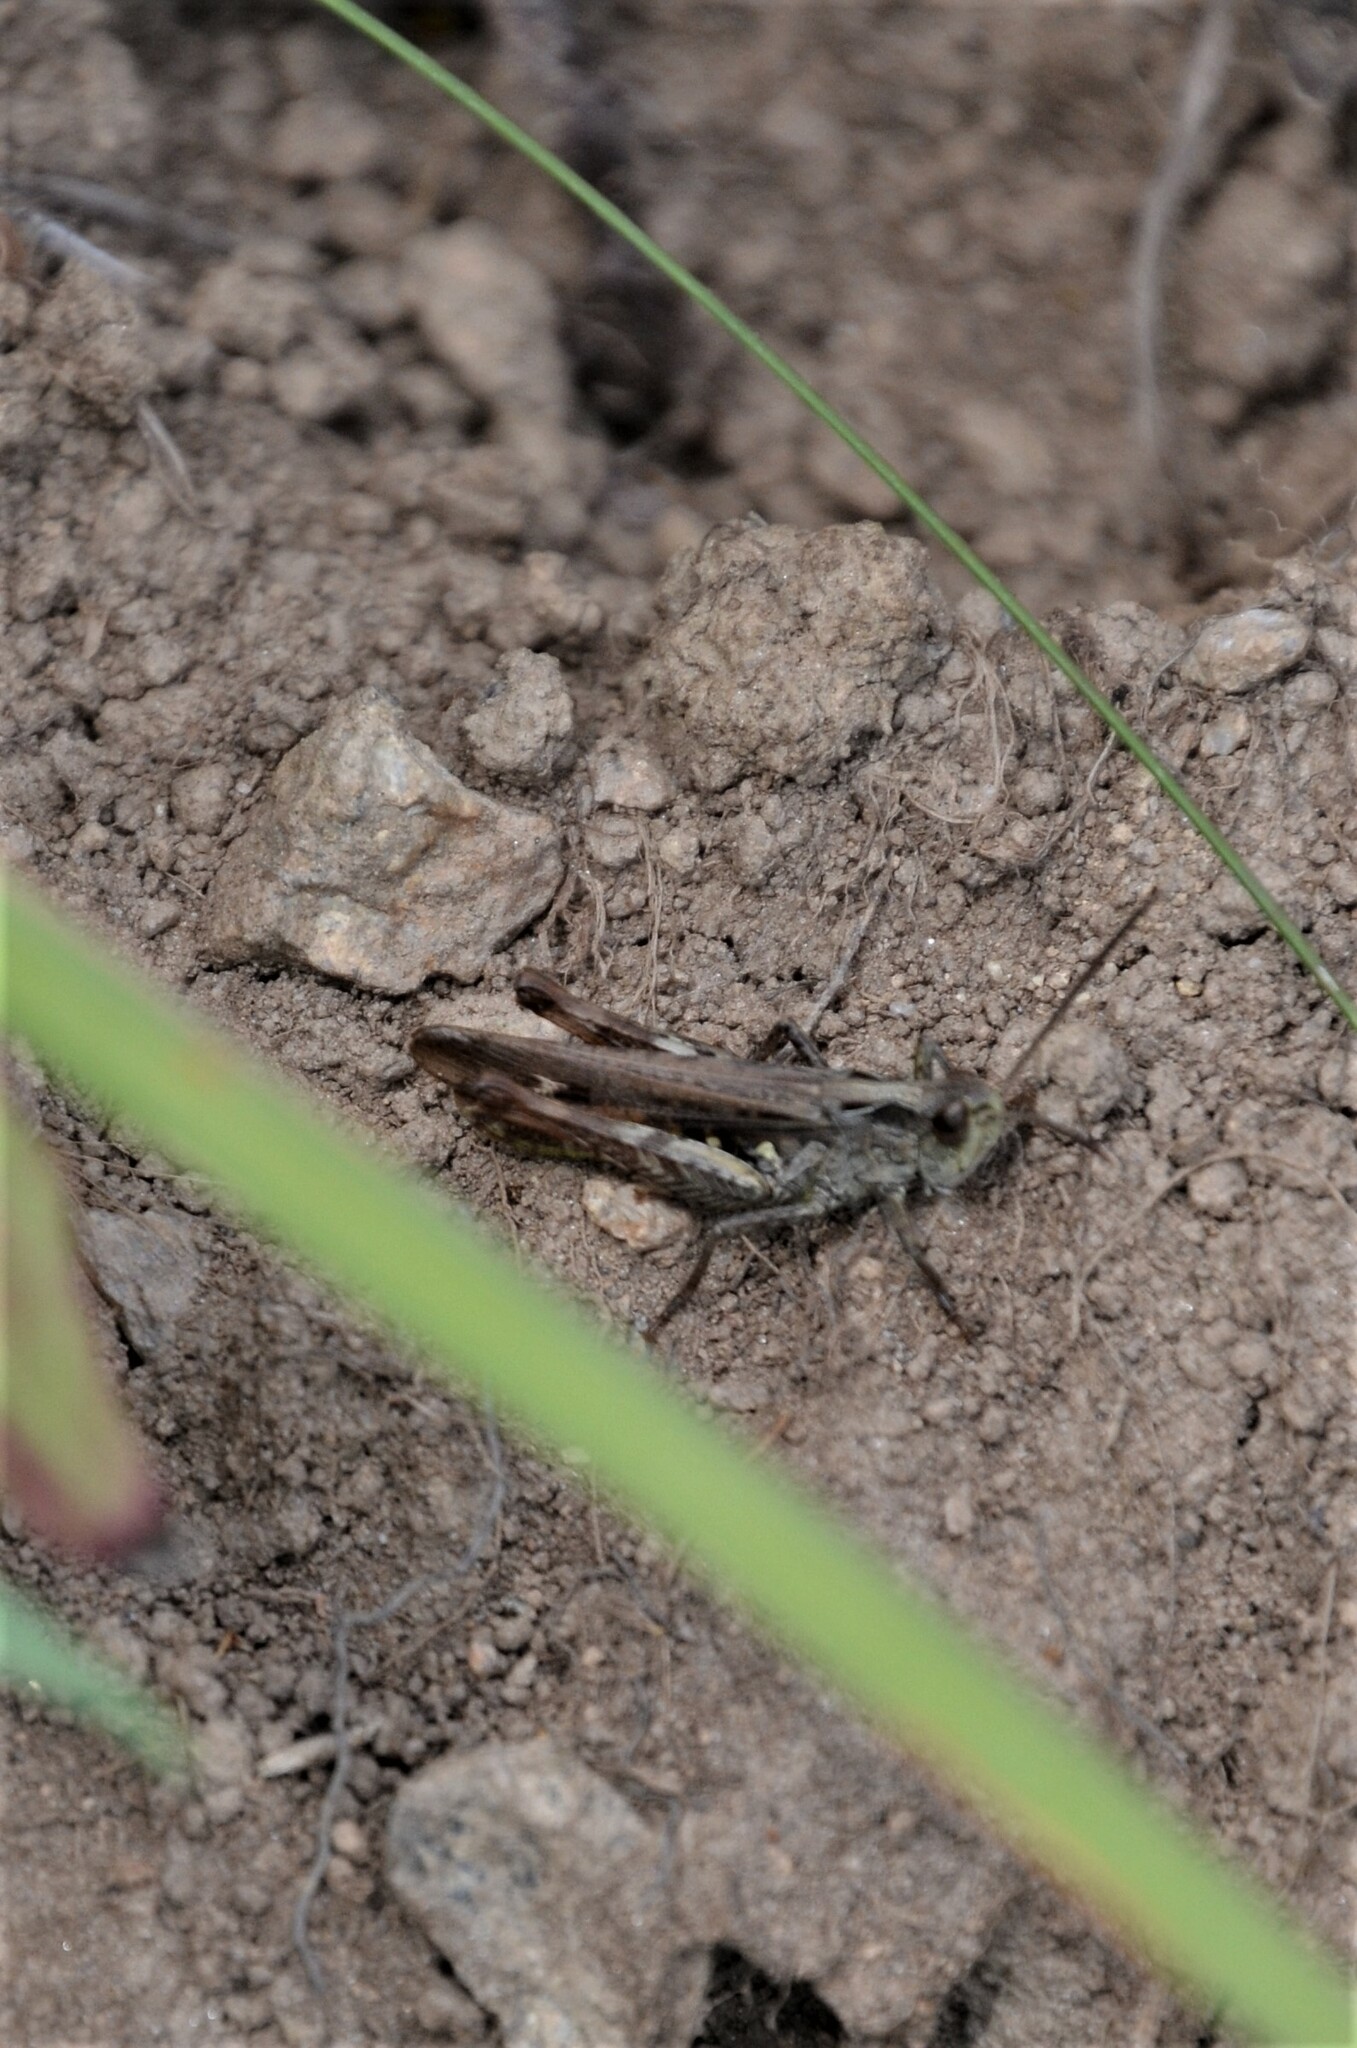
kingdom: Animalia
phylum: Arthropoda
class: Insecta
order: Orthoptera
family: Acrididae
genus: Chorthippus
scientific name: Chorthippus biguttulus
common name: Bow-winged grasshopper
